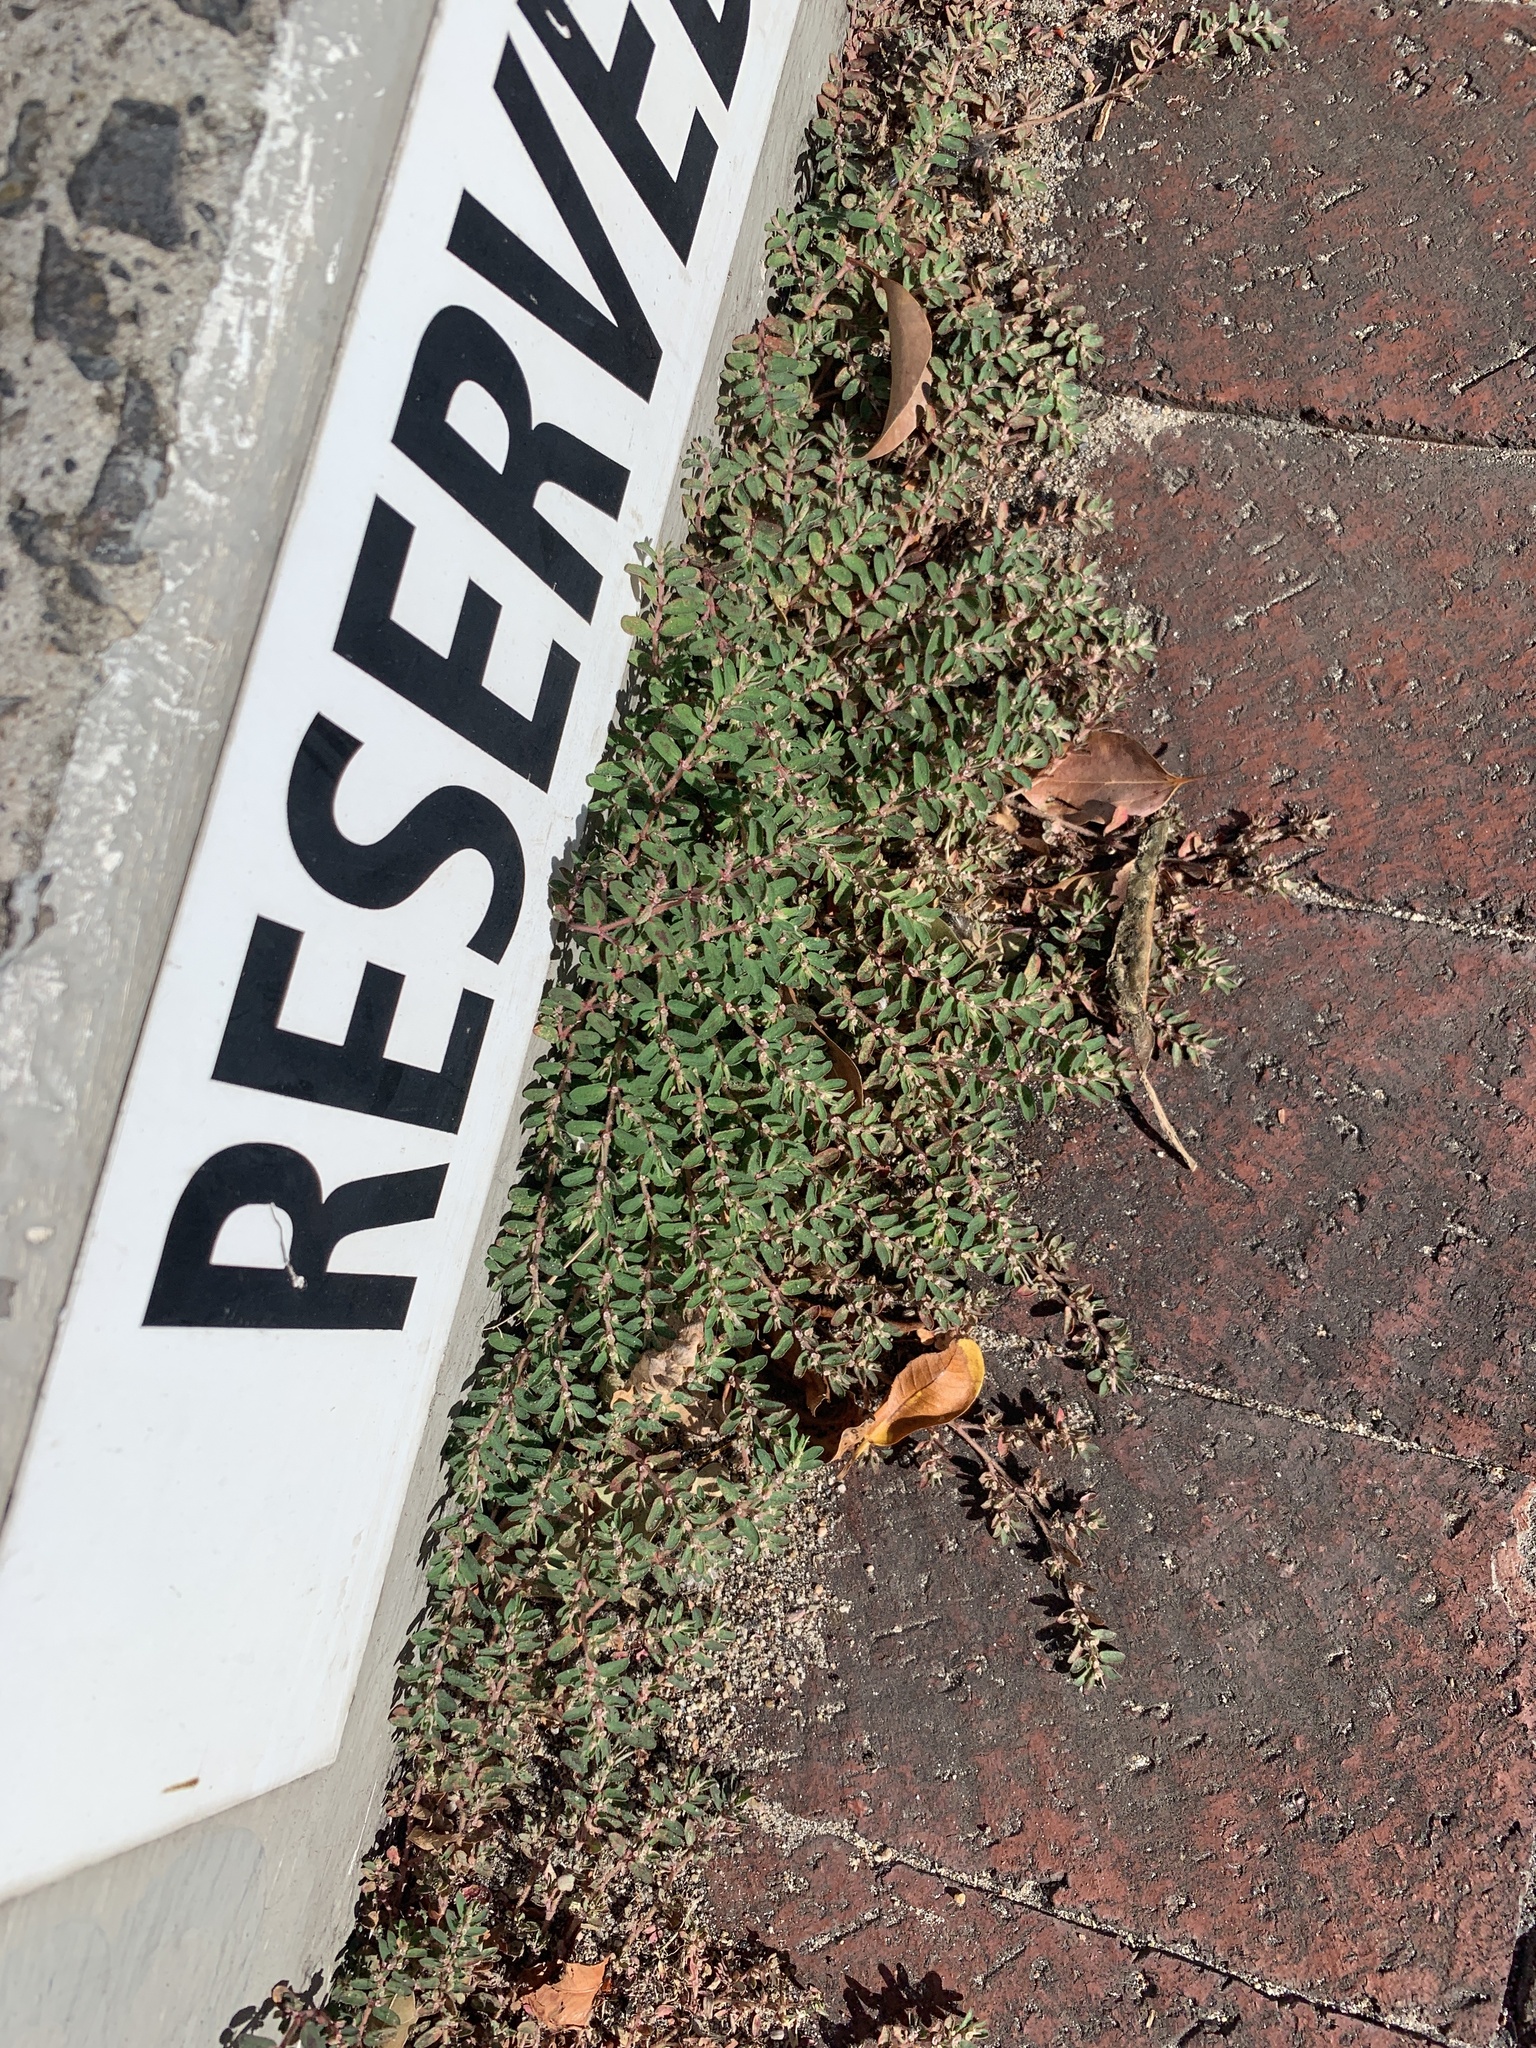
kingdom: Plantae
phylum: Tracheophyta
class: Magnoliopsida
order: Malpighiales
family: Euphorbiaceae
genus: Euphorbia
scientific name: Euphorbia maculata
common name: Spotted spurge
